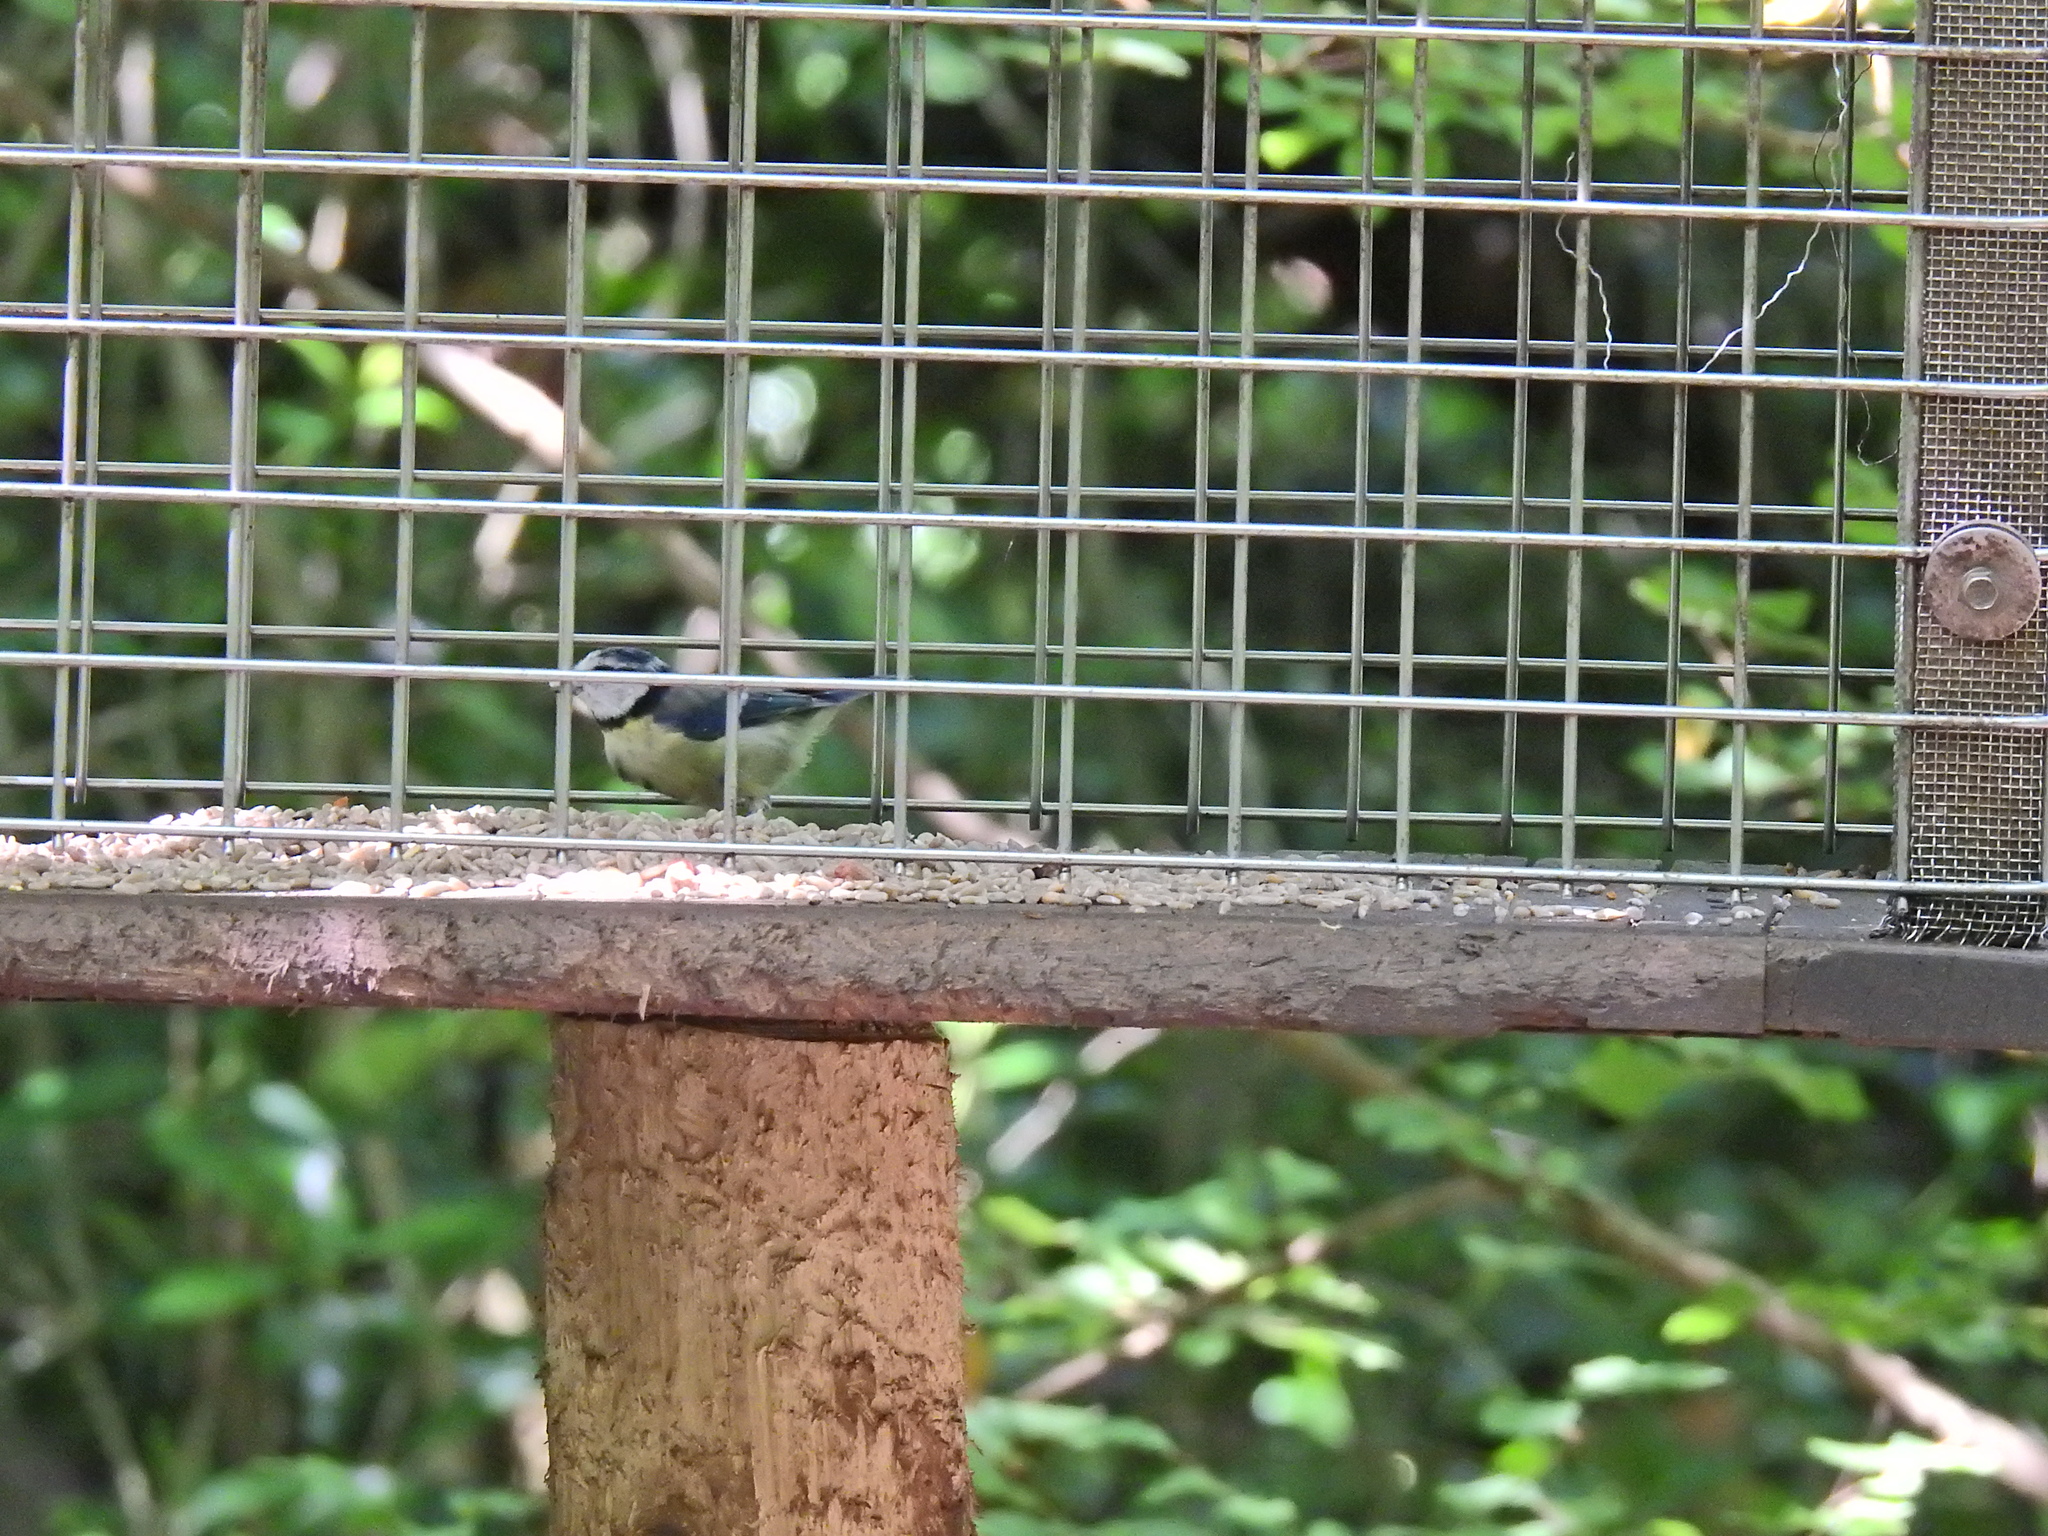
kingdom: Animalia
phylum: Chordata
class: Aves
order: Passeriformes
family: Paridae
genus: Cyanistes
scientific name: Cyanistes caeruleus
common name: Eurasian blue tit
